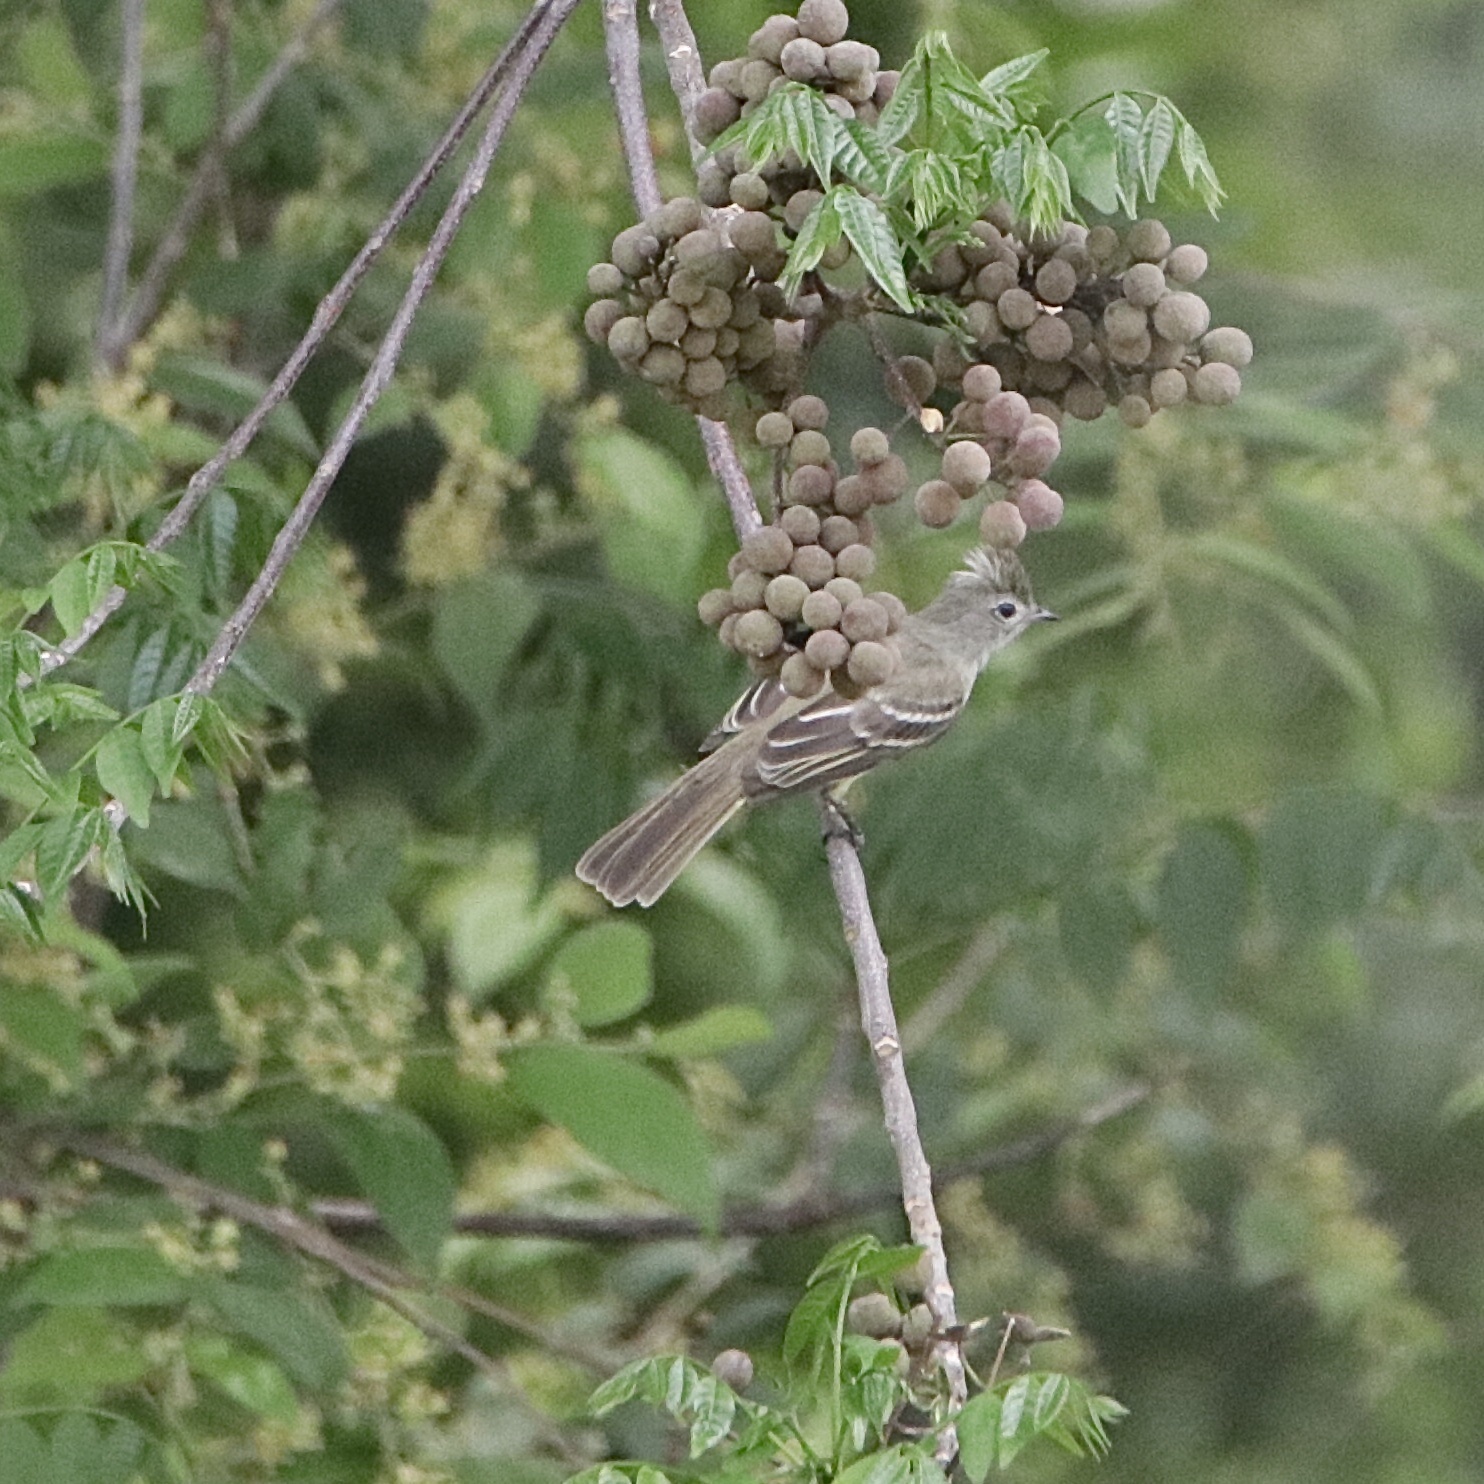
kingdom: Animalia
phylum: Chordata
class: Aves
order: Passeriformes
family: Tyrannidae
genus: Elaenia
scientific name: Elaenia flavogaster
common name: Yellow-bellied elaenia
